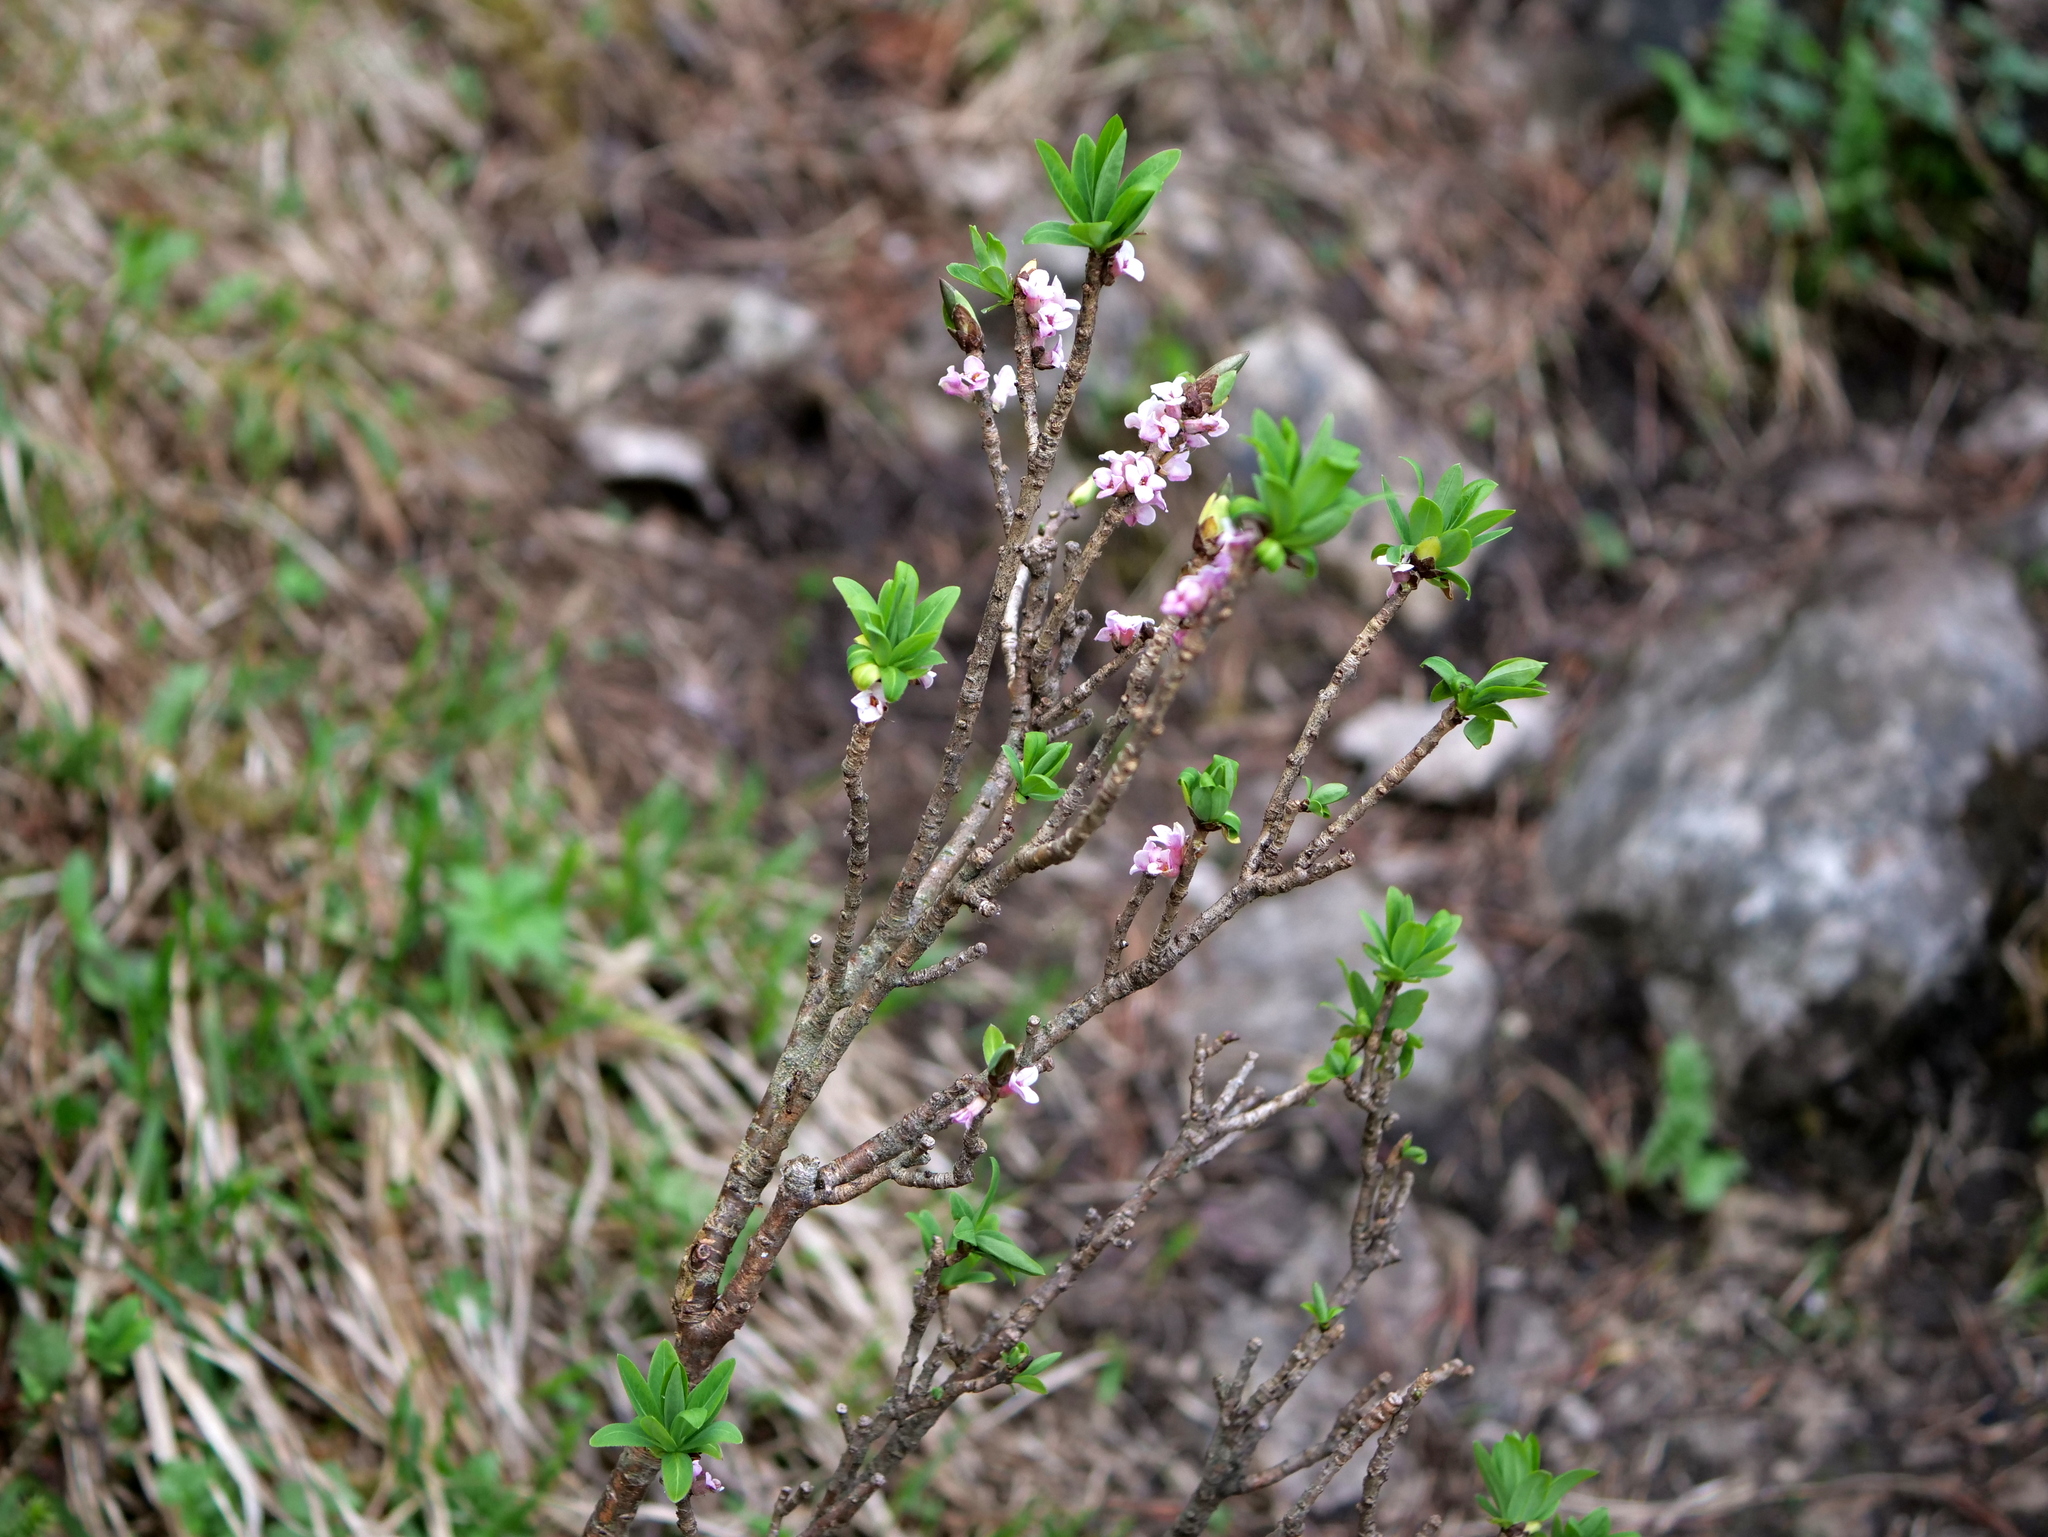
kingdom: Plantae
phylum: Tracheophyta
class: Magnoliopsida
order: Malvales
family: Thymelaeaceae
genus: Daphne
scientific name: Daphne mezereum
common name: Mezereon
